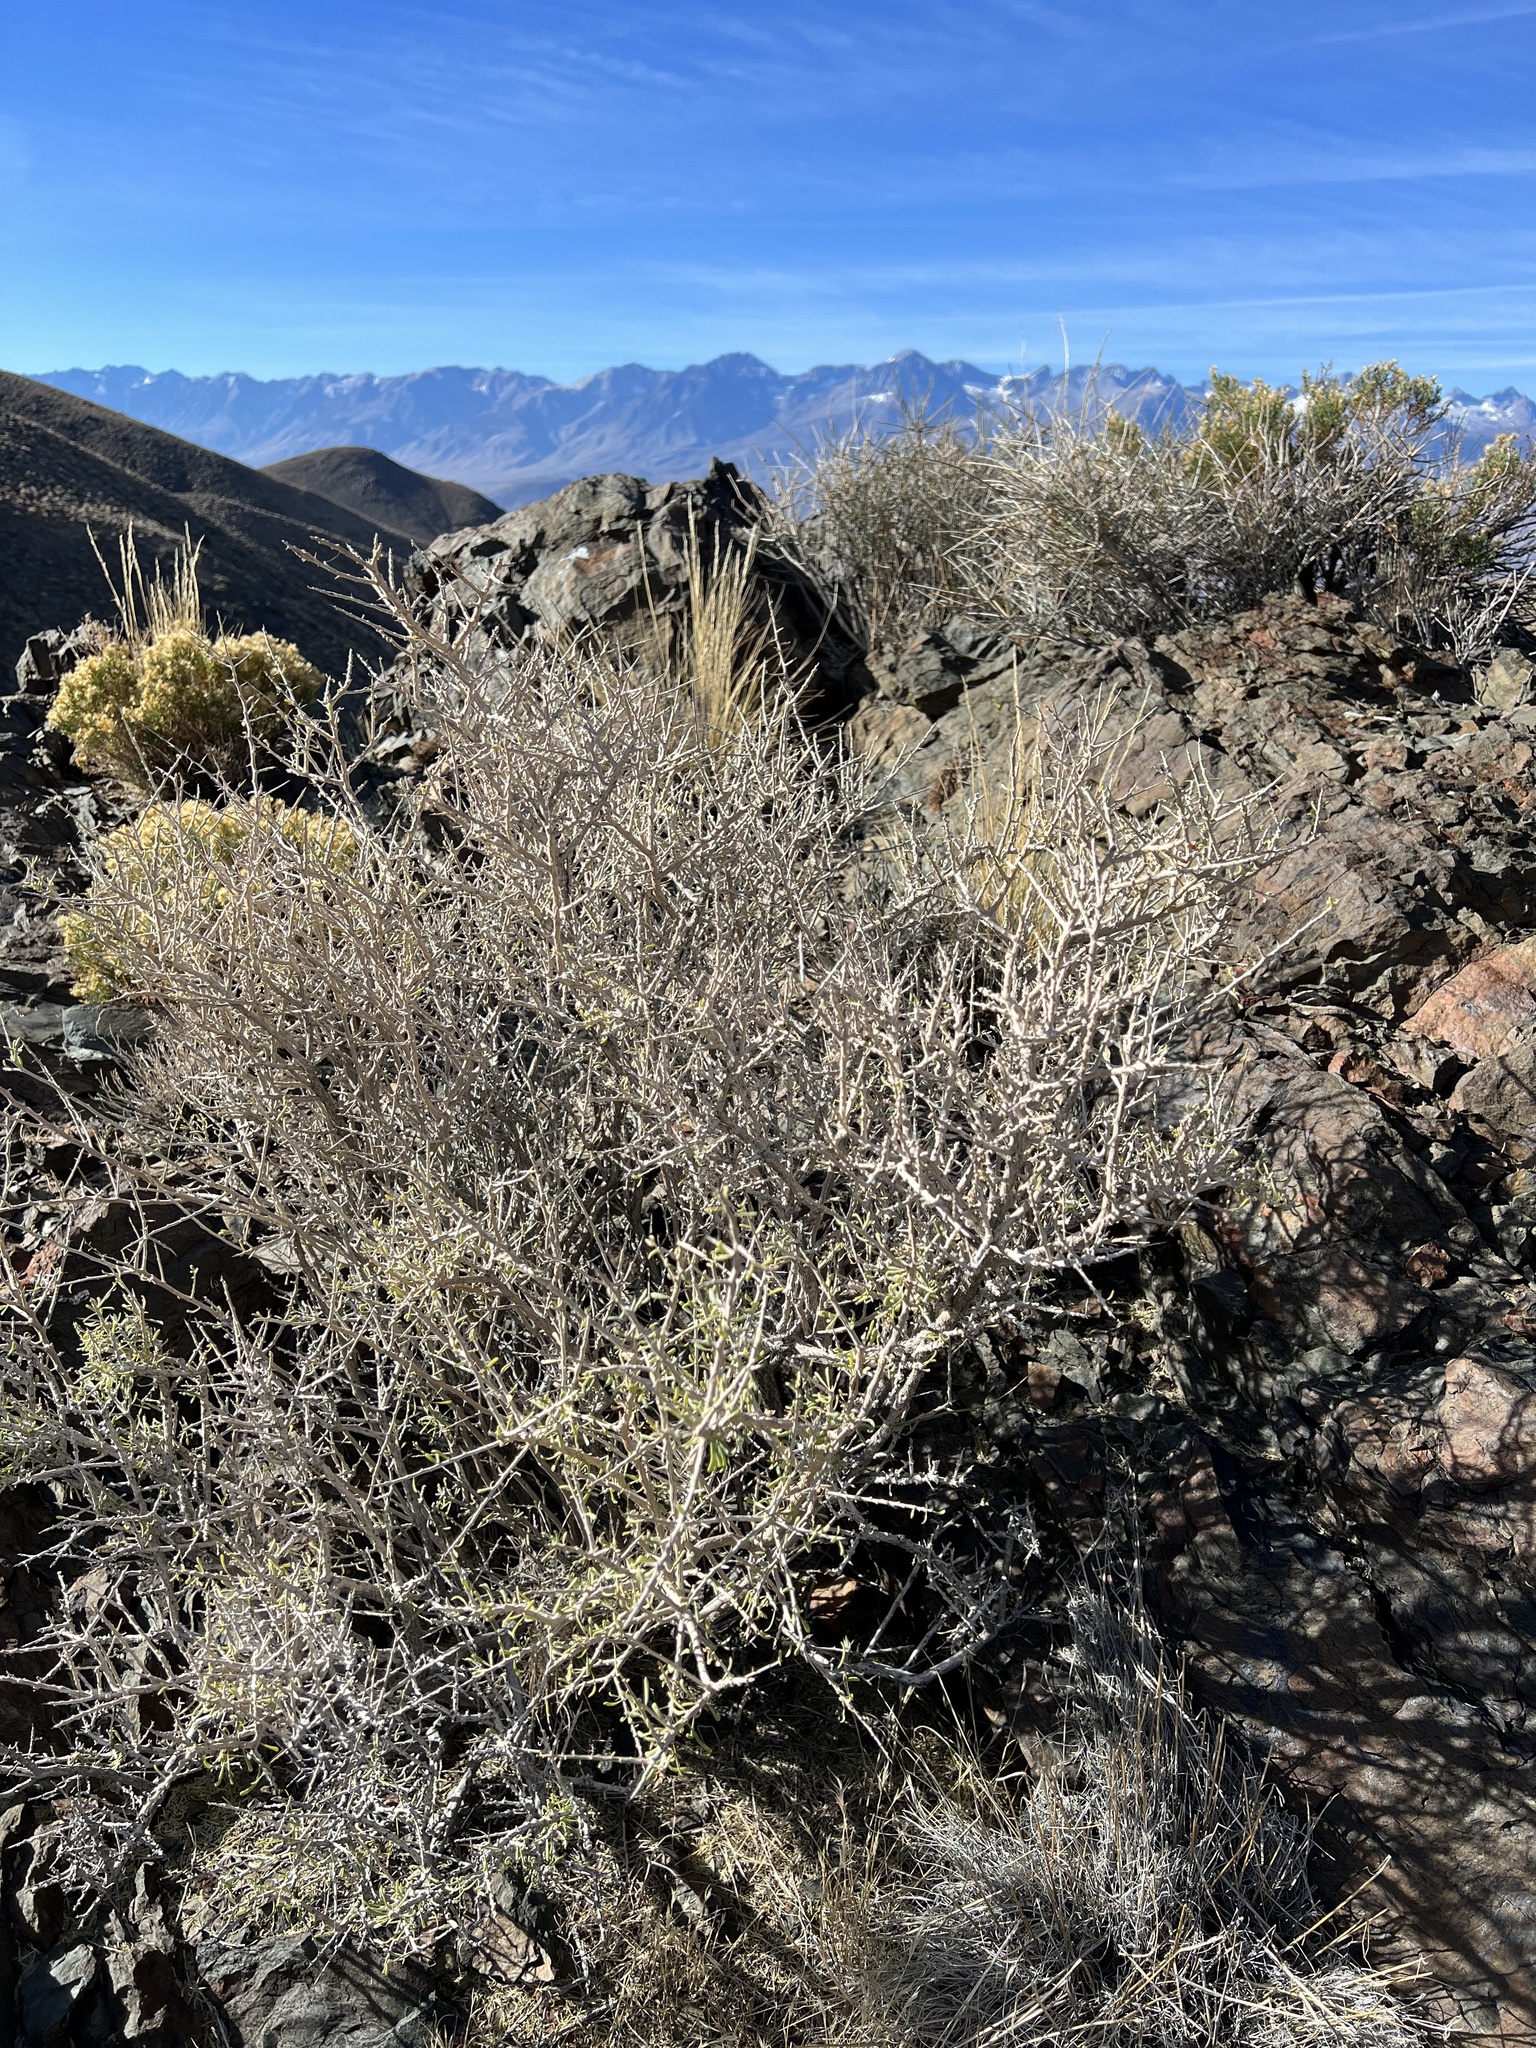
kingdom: Plantae
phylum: Tracheophyta
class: Magnoliopsida
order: Solanales
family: Solanaceae
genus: Lycium
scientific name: Lycium andersonii
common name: Water-jacket
